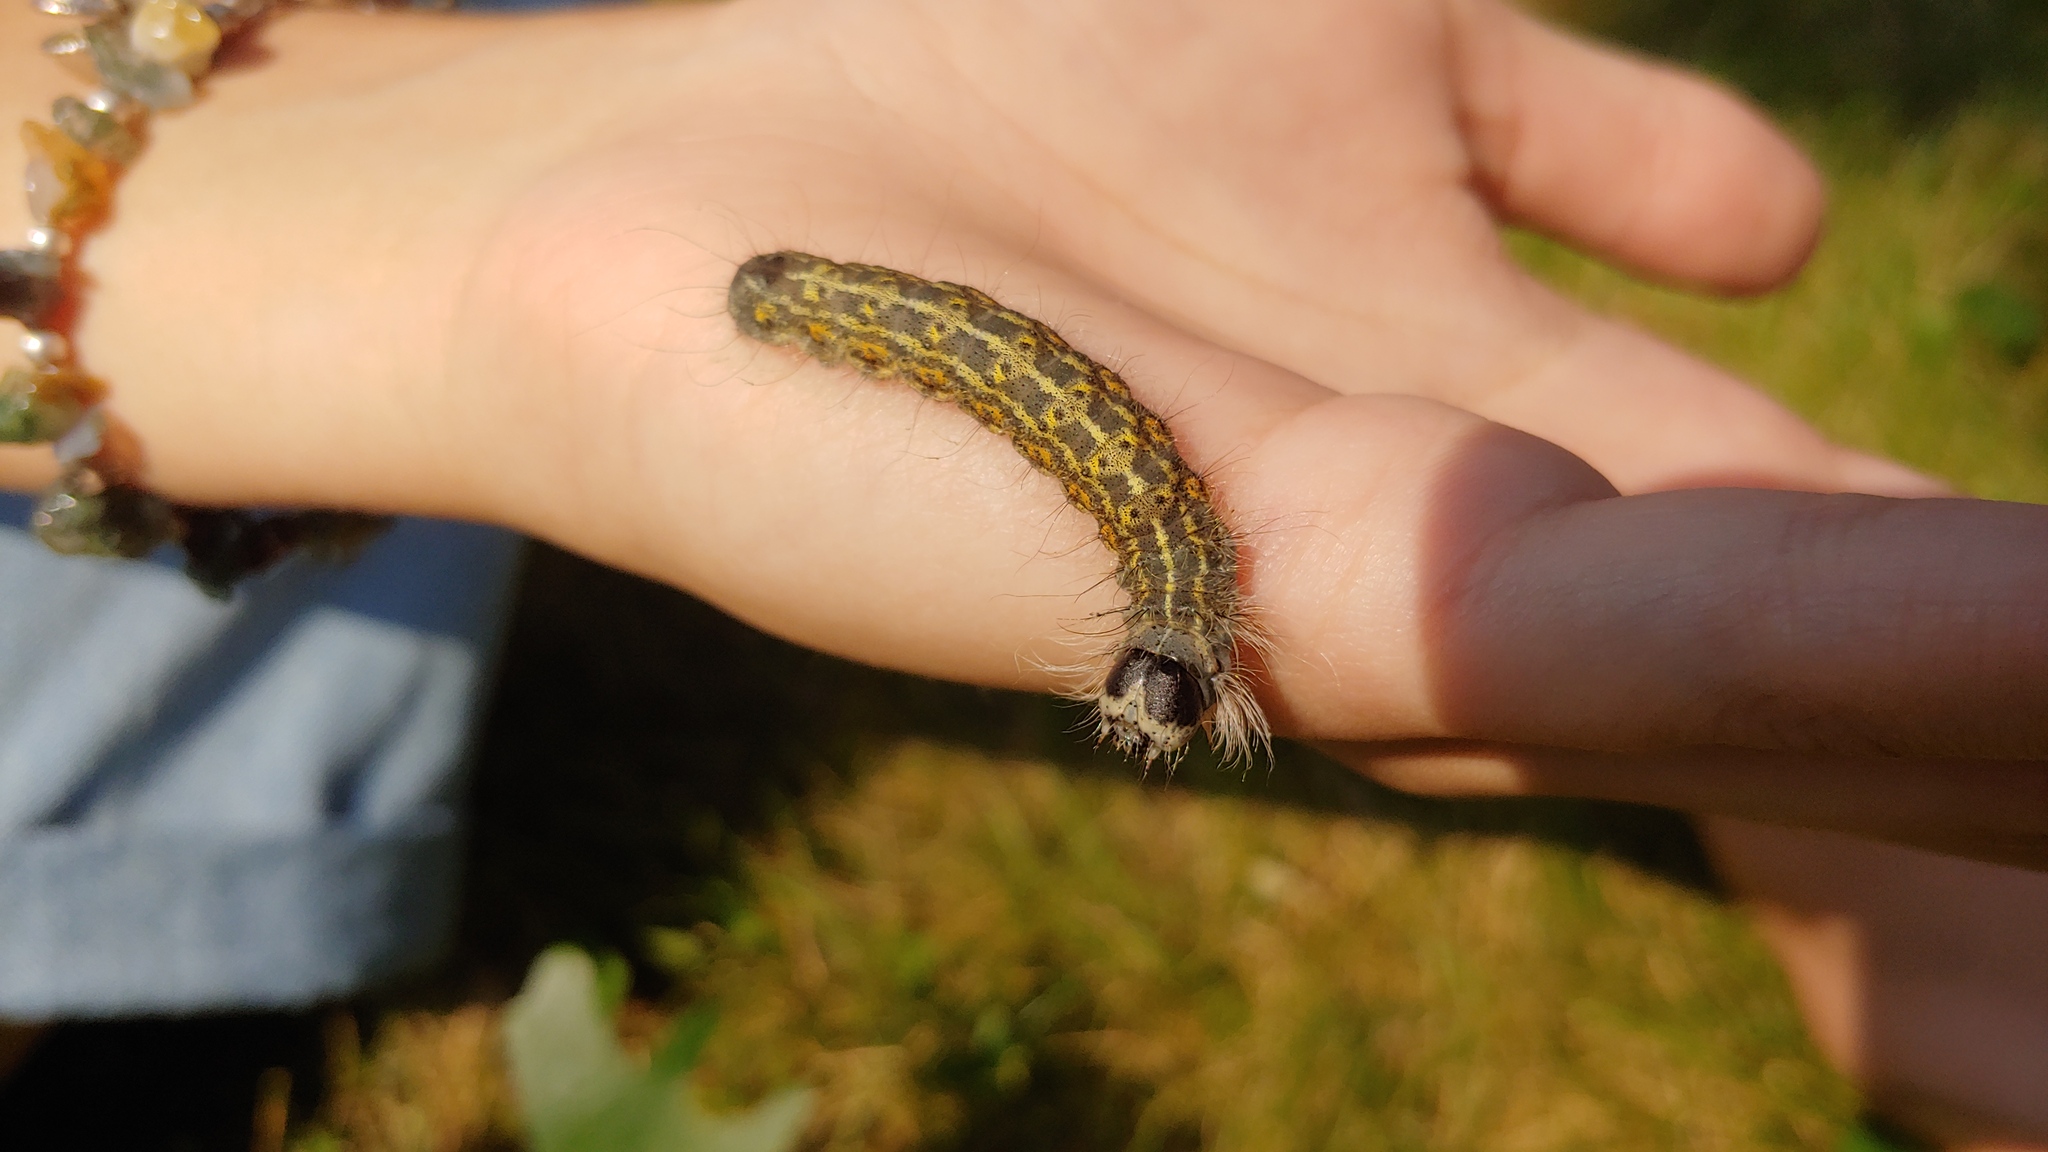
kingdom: Animalia
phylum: Arthropoda
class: Insecta
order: Lepidoptera
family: Noctuidae
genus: Acronicta
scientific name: Acronicta lobeliae
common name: Greater oak dagger
